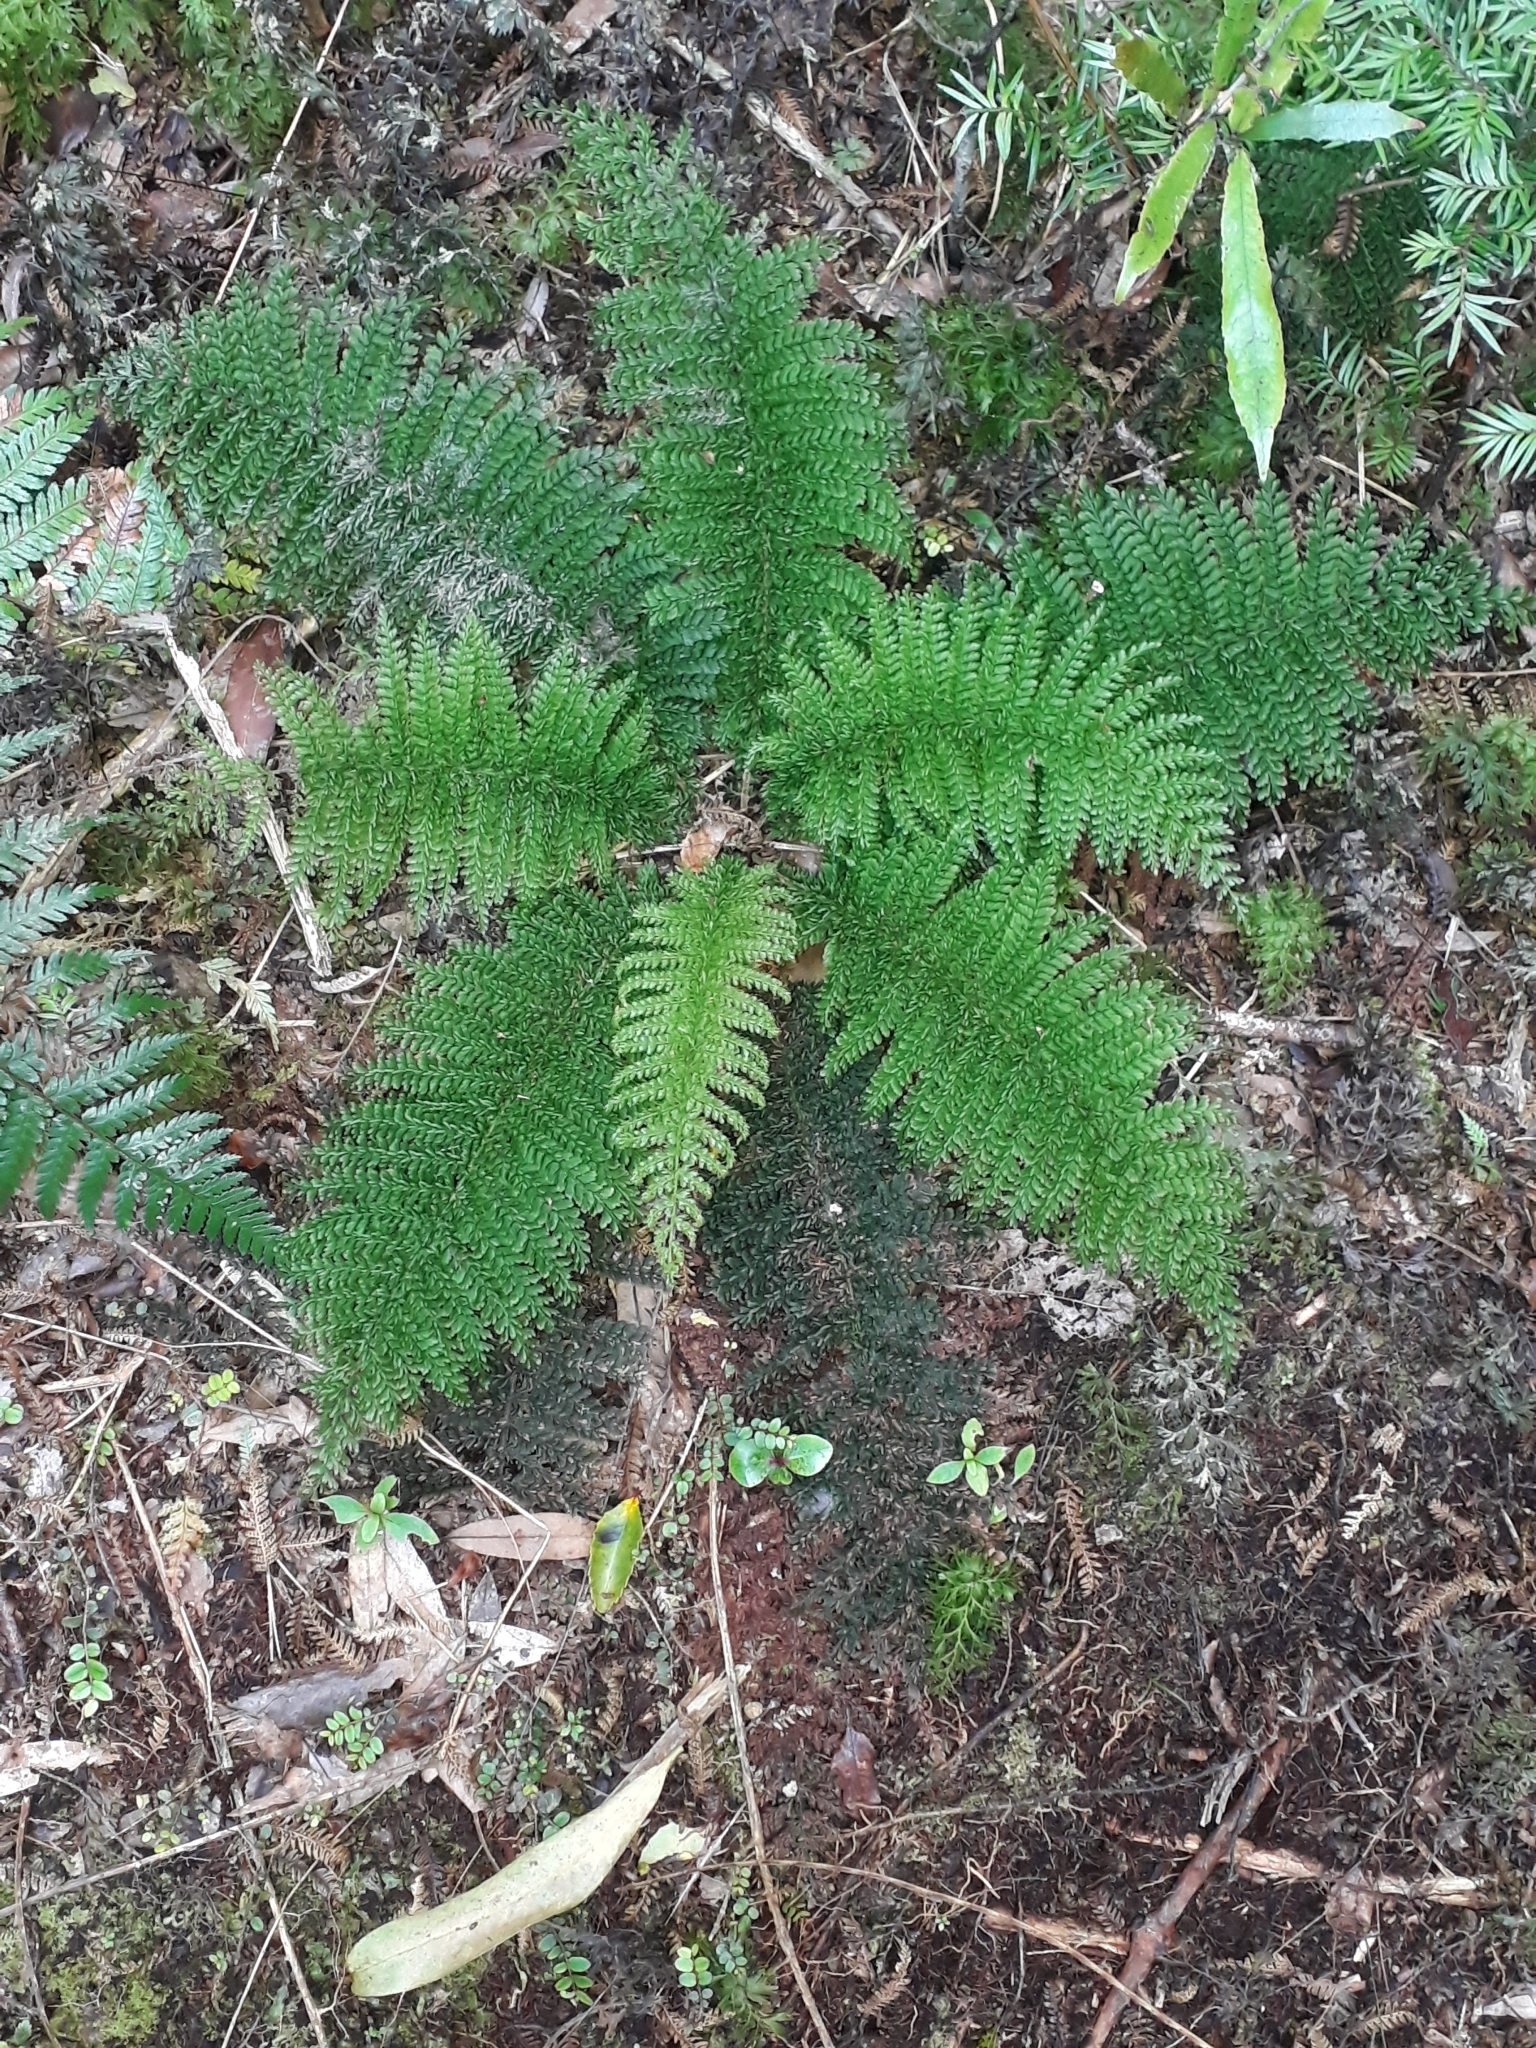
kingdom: Plantae
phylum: Tracheophyta
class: Polypodiopsida
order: Osmundales
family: Osmundaceae
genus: Leptopteris
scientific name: Leptopteris superba
